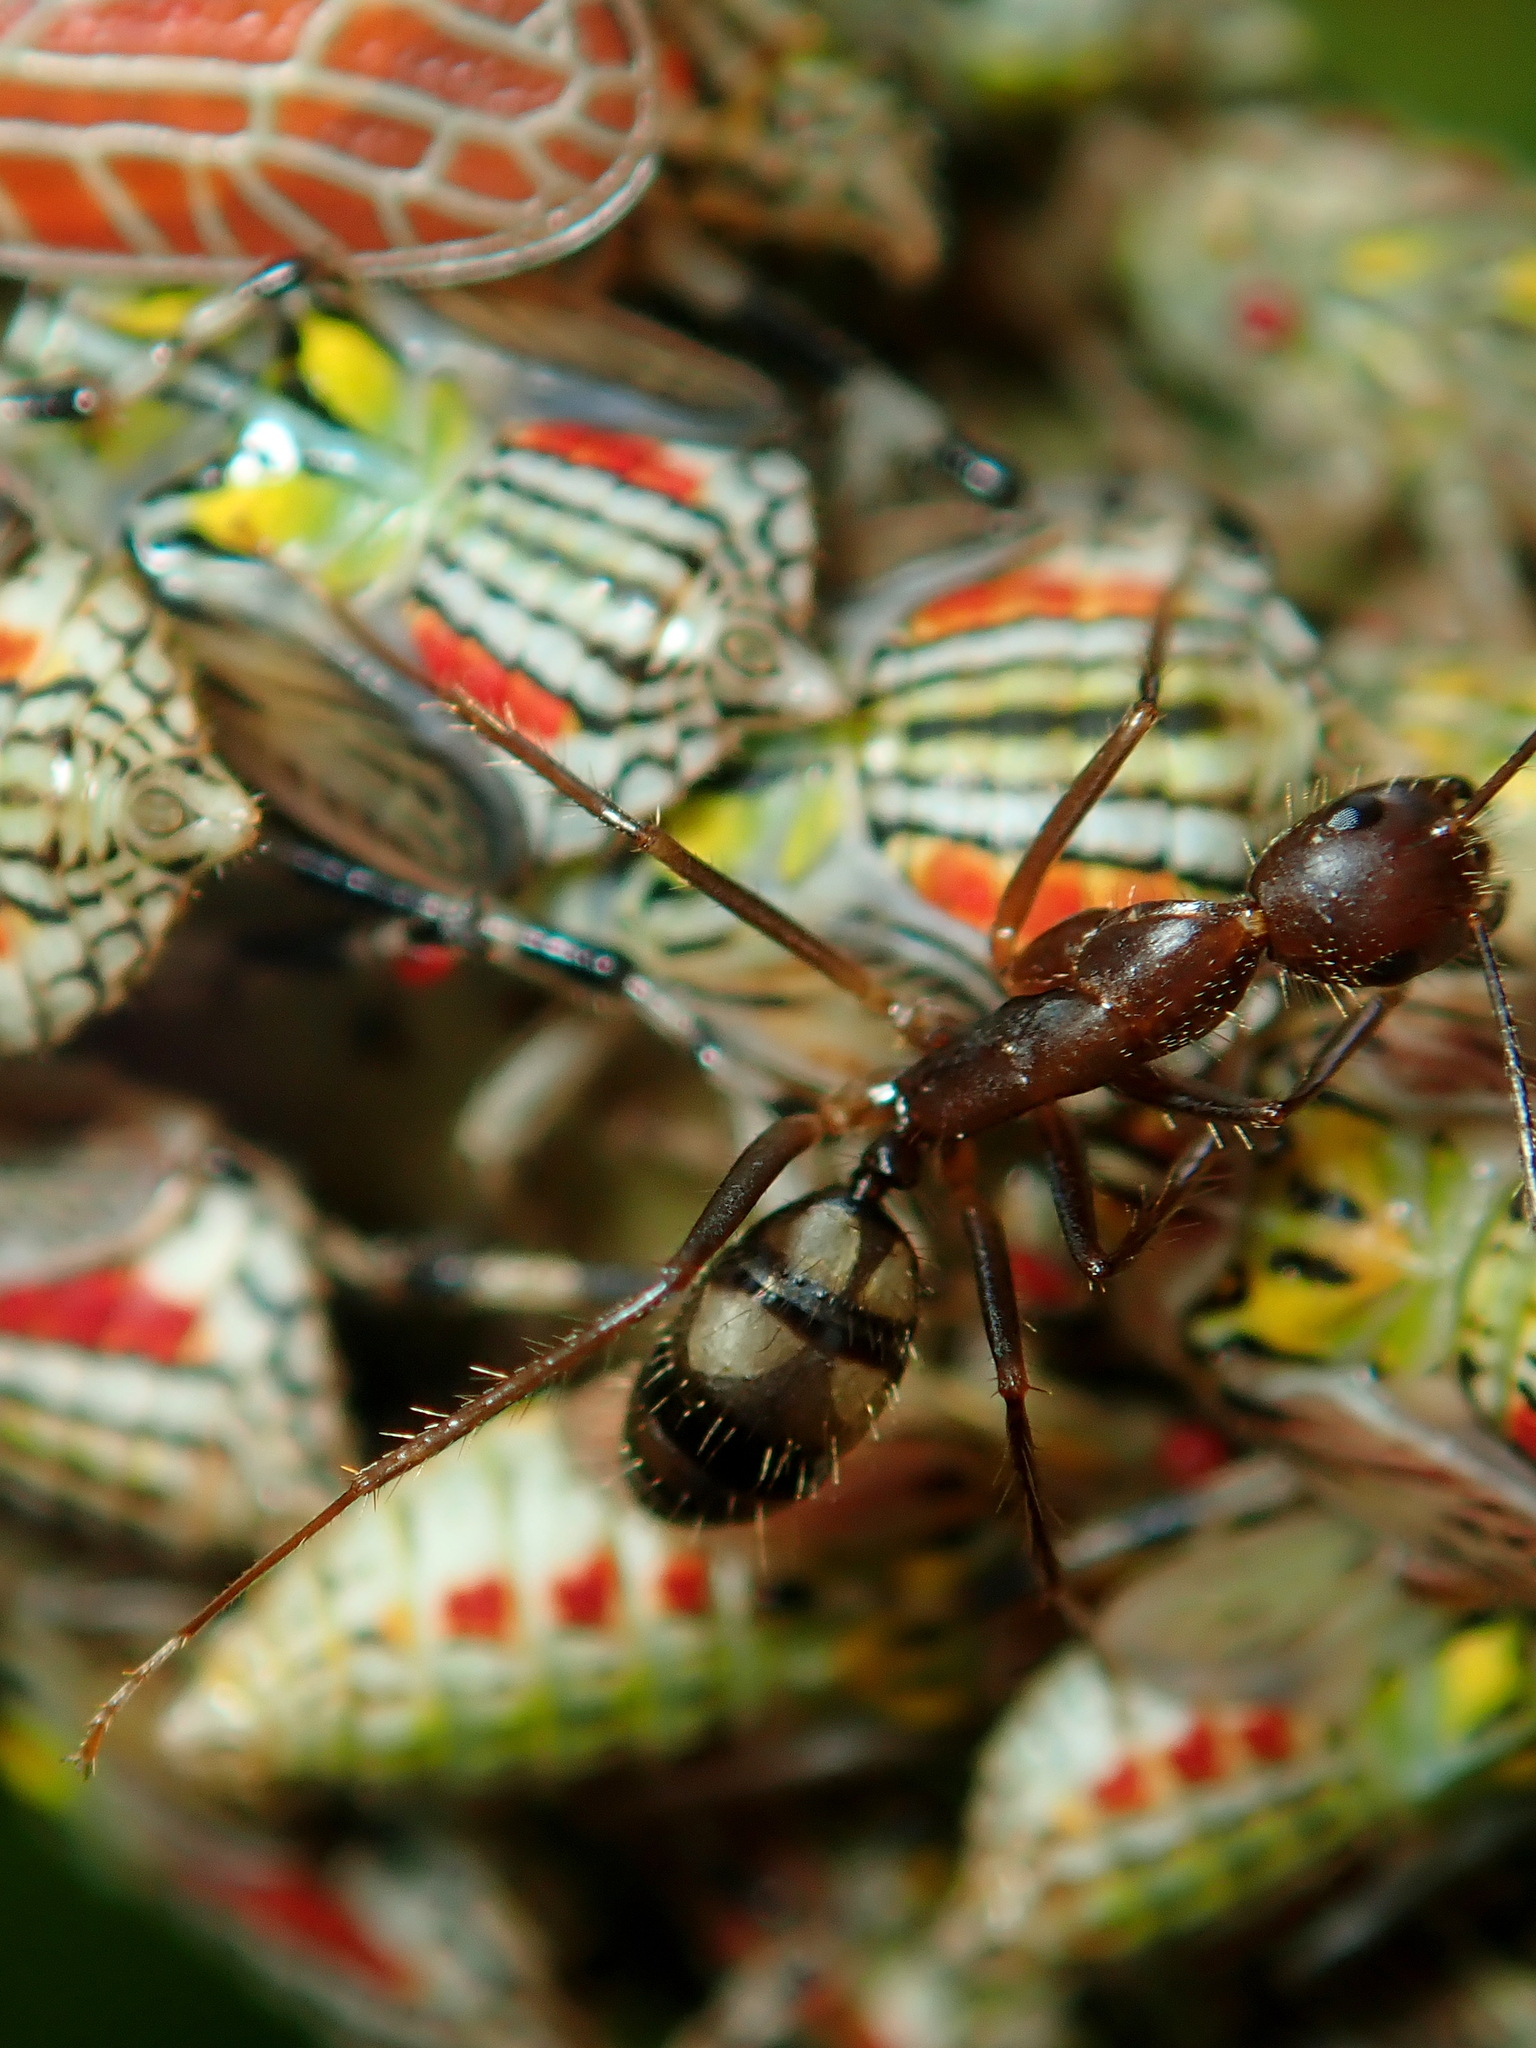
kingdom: Animalia
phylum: Arthropoda
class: Insecta
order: Hymenoptera
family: Formicidae
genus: Camponotus
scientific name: Camponotus cingulatus
